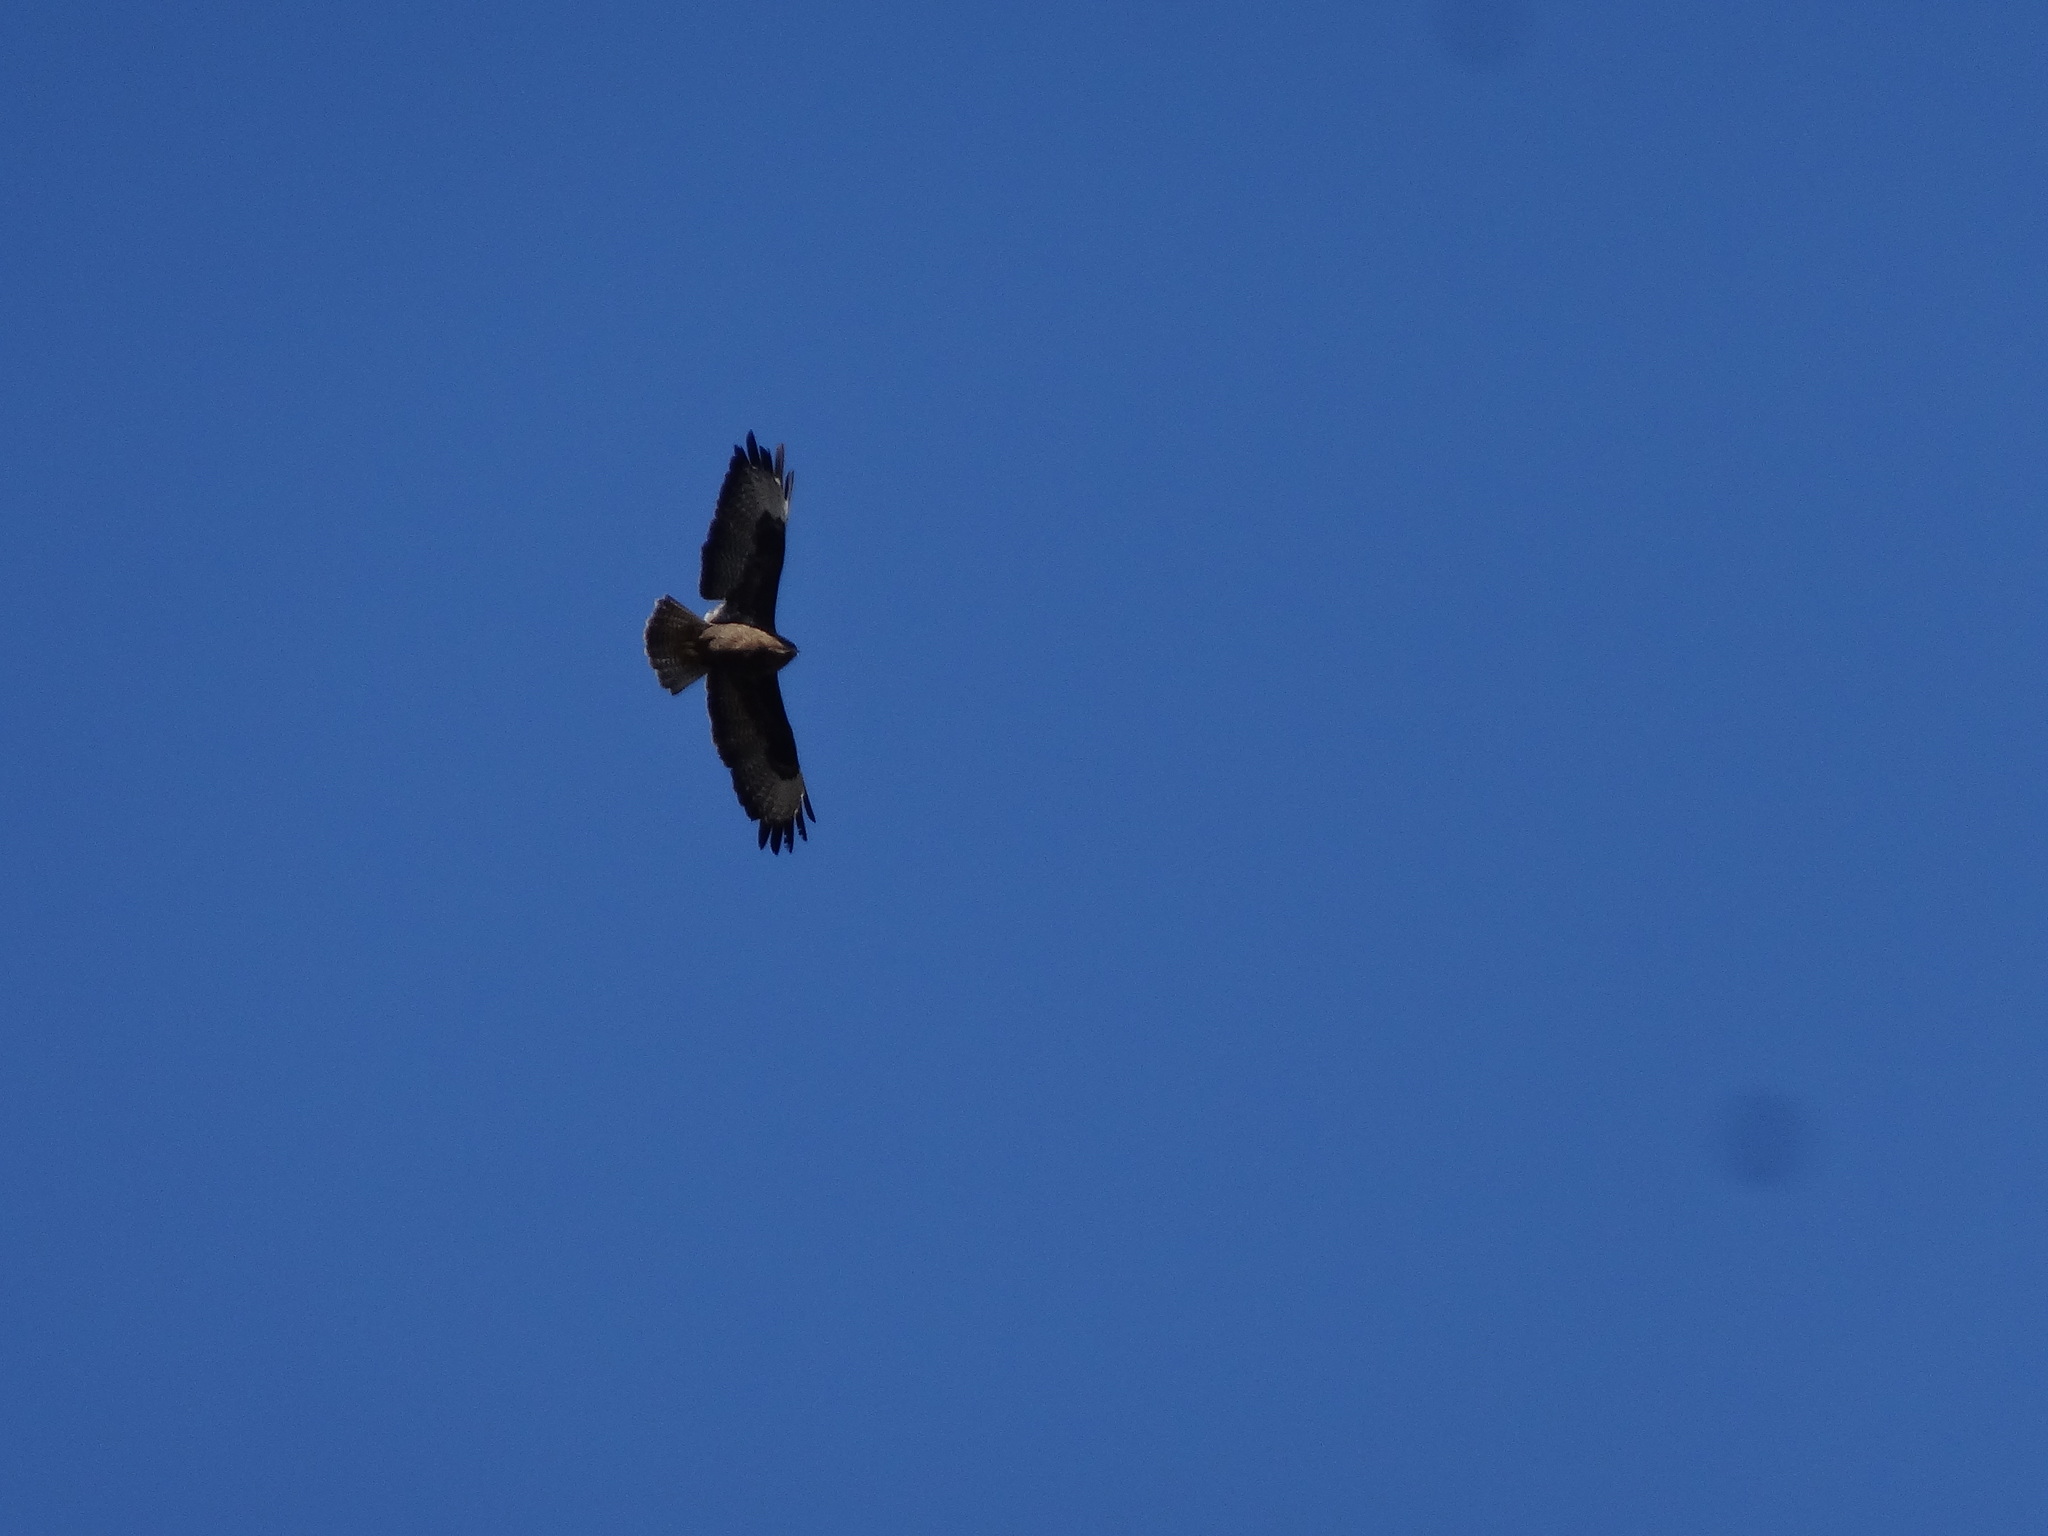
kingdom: Animalia
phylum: Chordata
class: Aves
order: Accipitriformes
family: Accipitridae
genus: Buteo
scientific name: Buteo buteo
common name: Common buzzard
